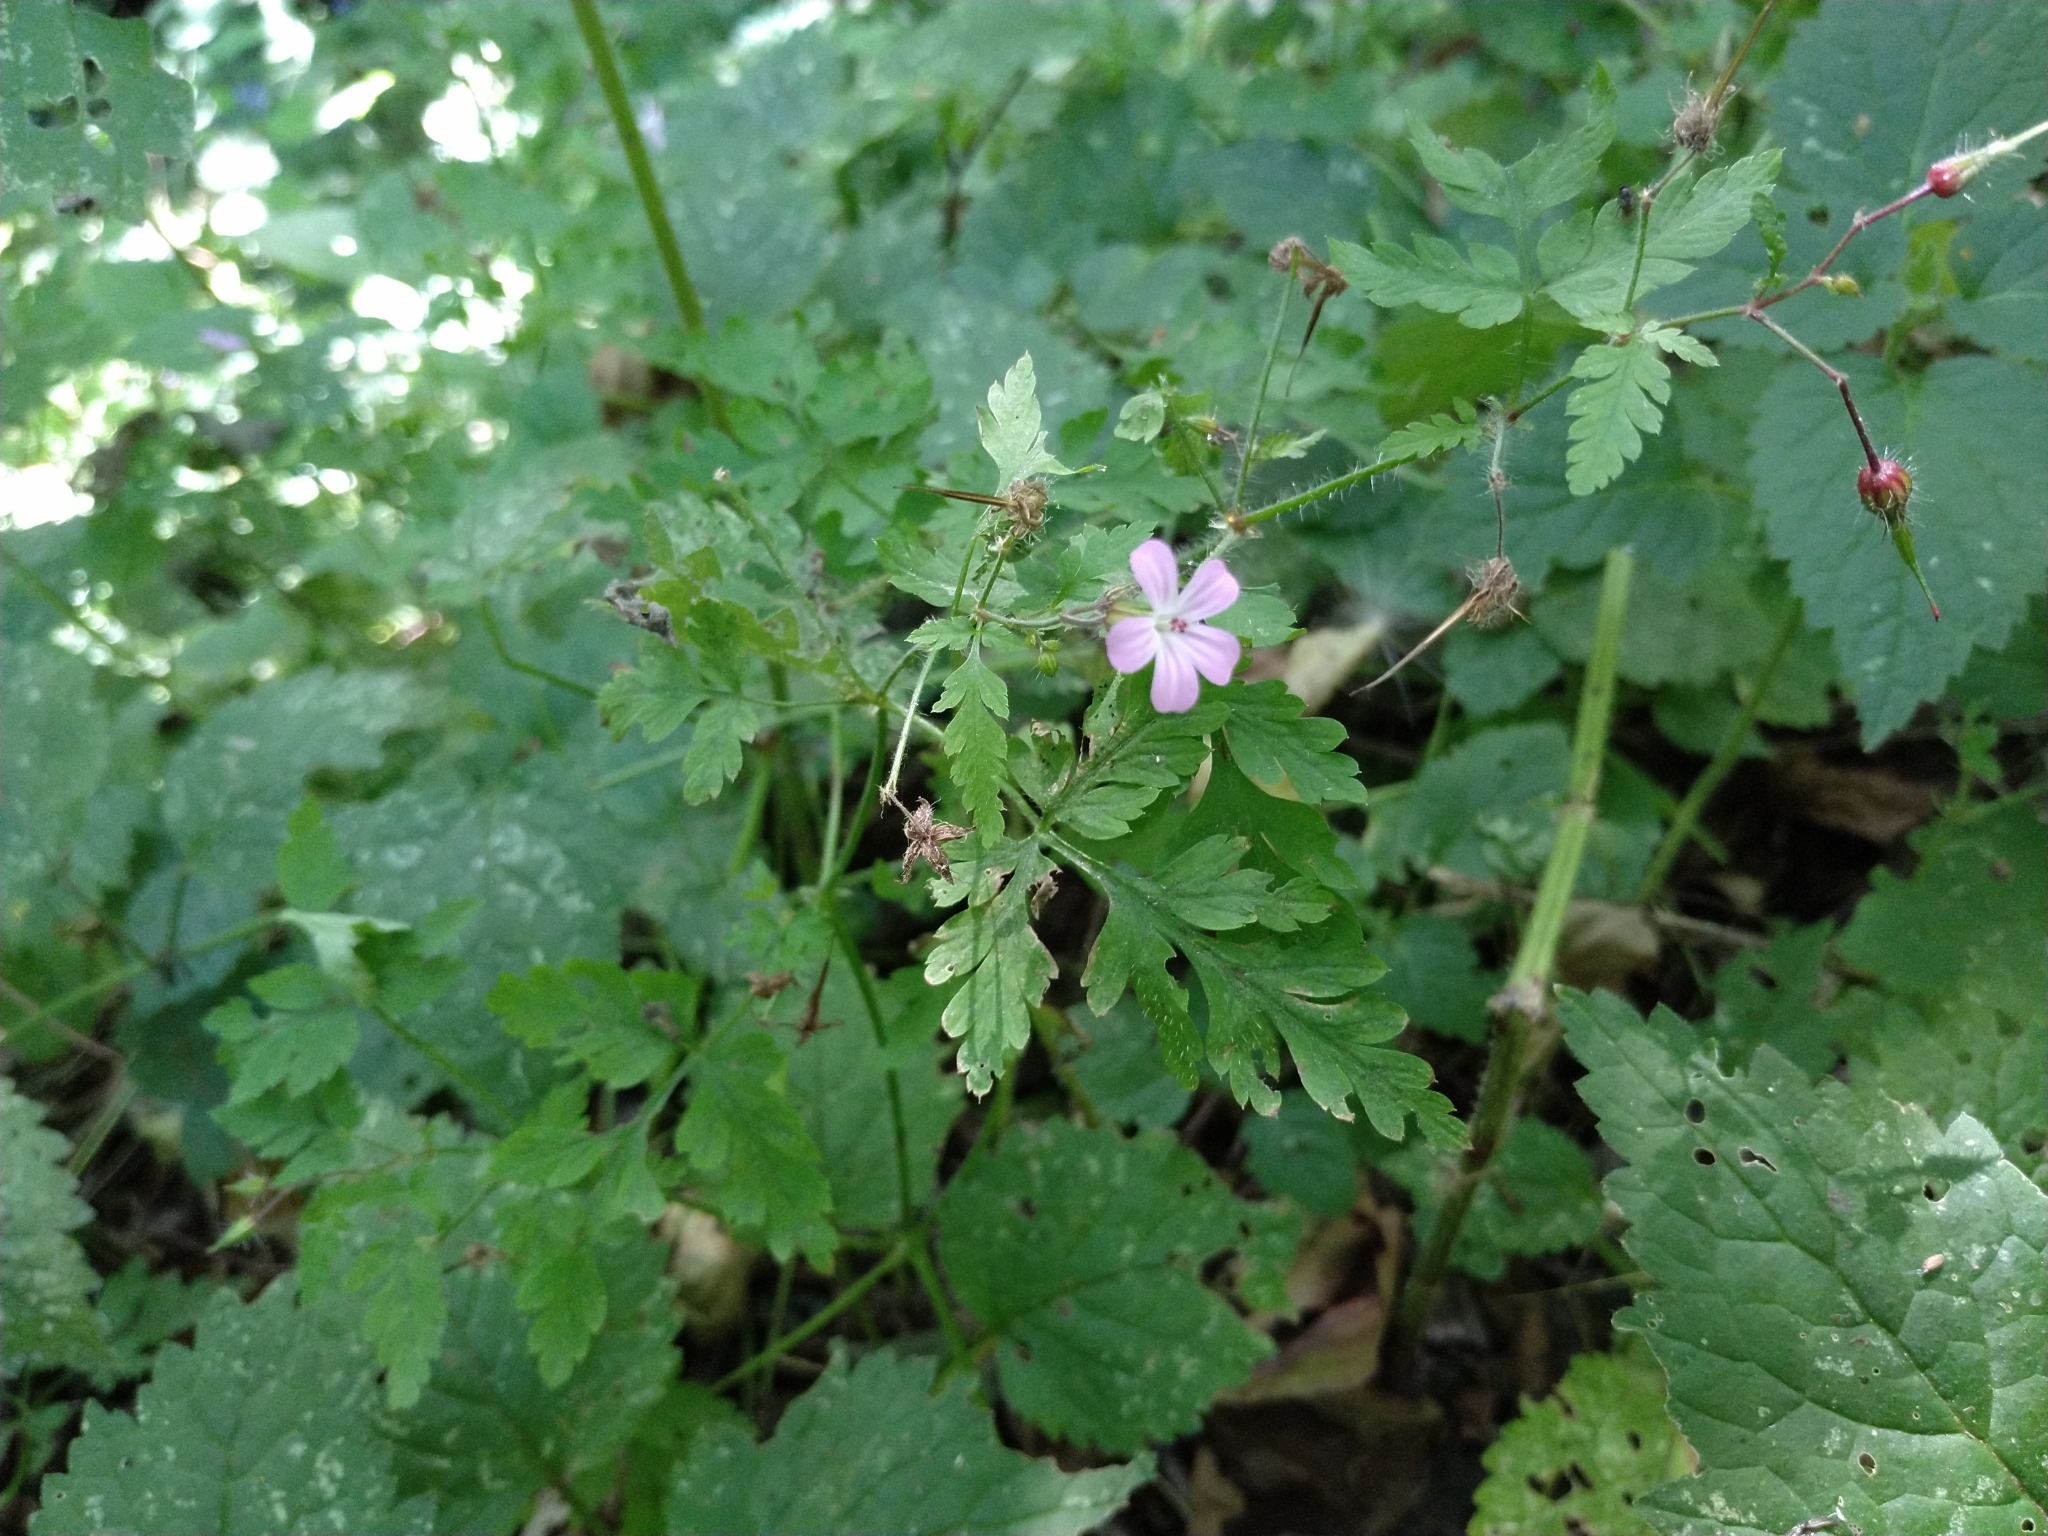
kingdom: Plantae
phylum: Tracheophyta
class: Magnoliopsida
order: Geraniales
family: Geraniaceae
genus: Geranium
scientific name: Geranium robertianum
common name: Herb-robert
